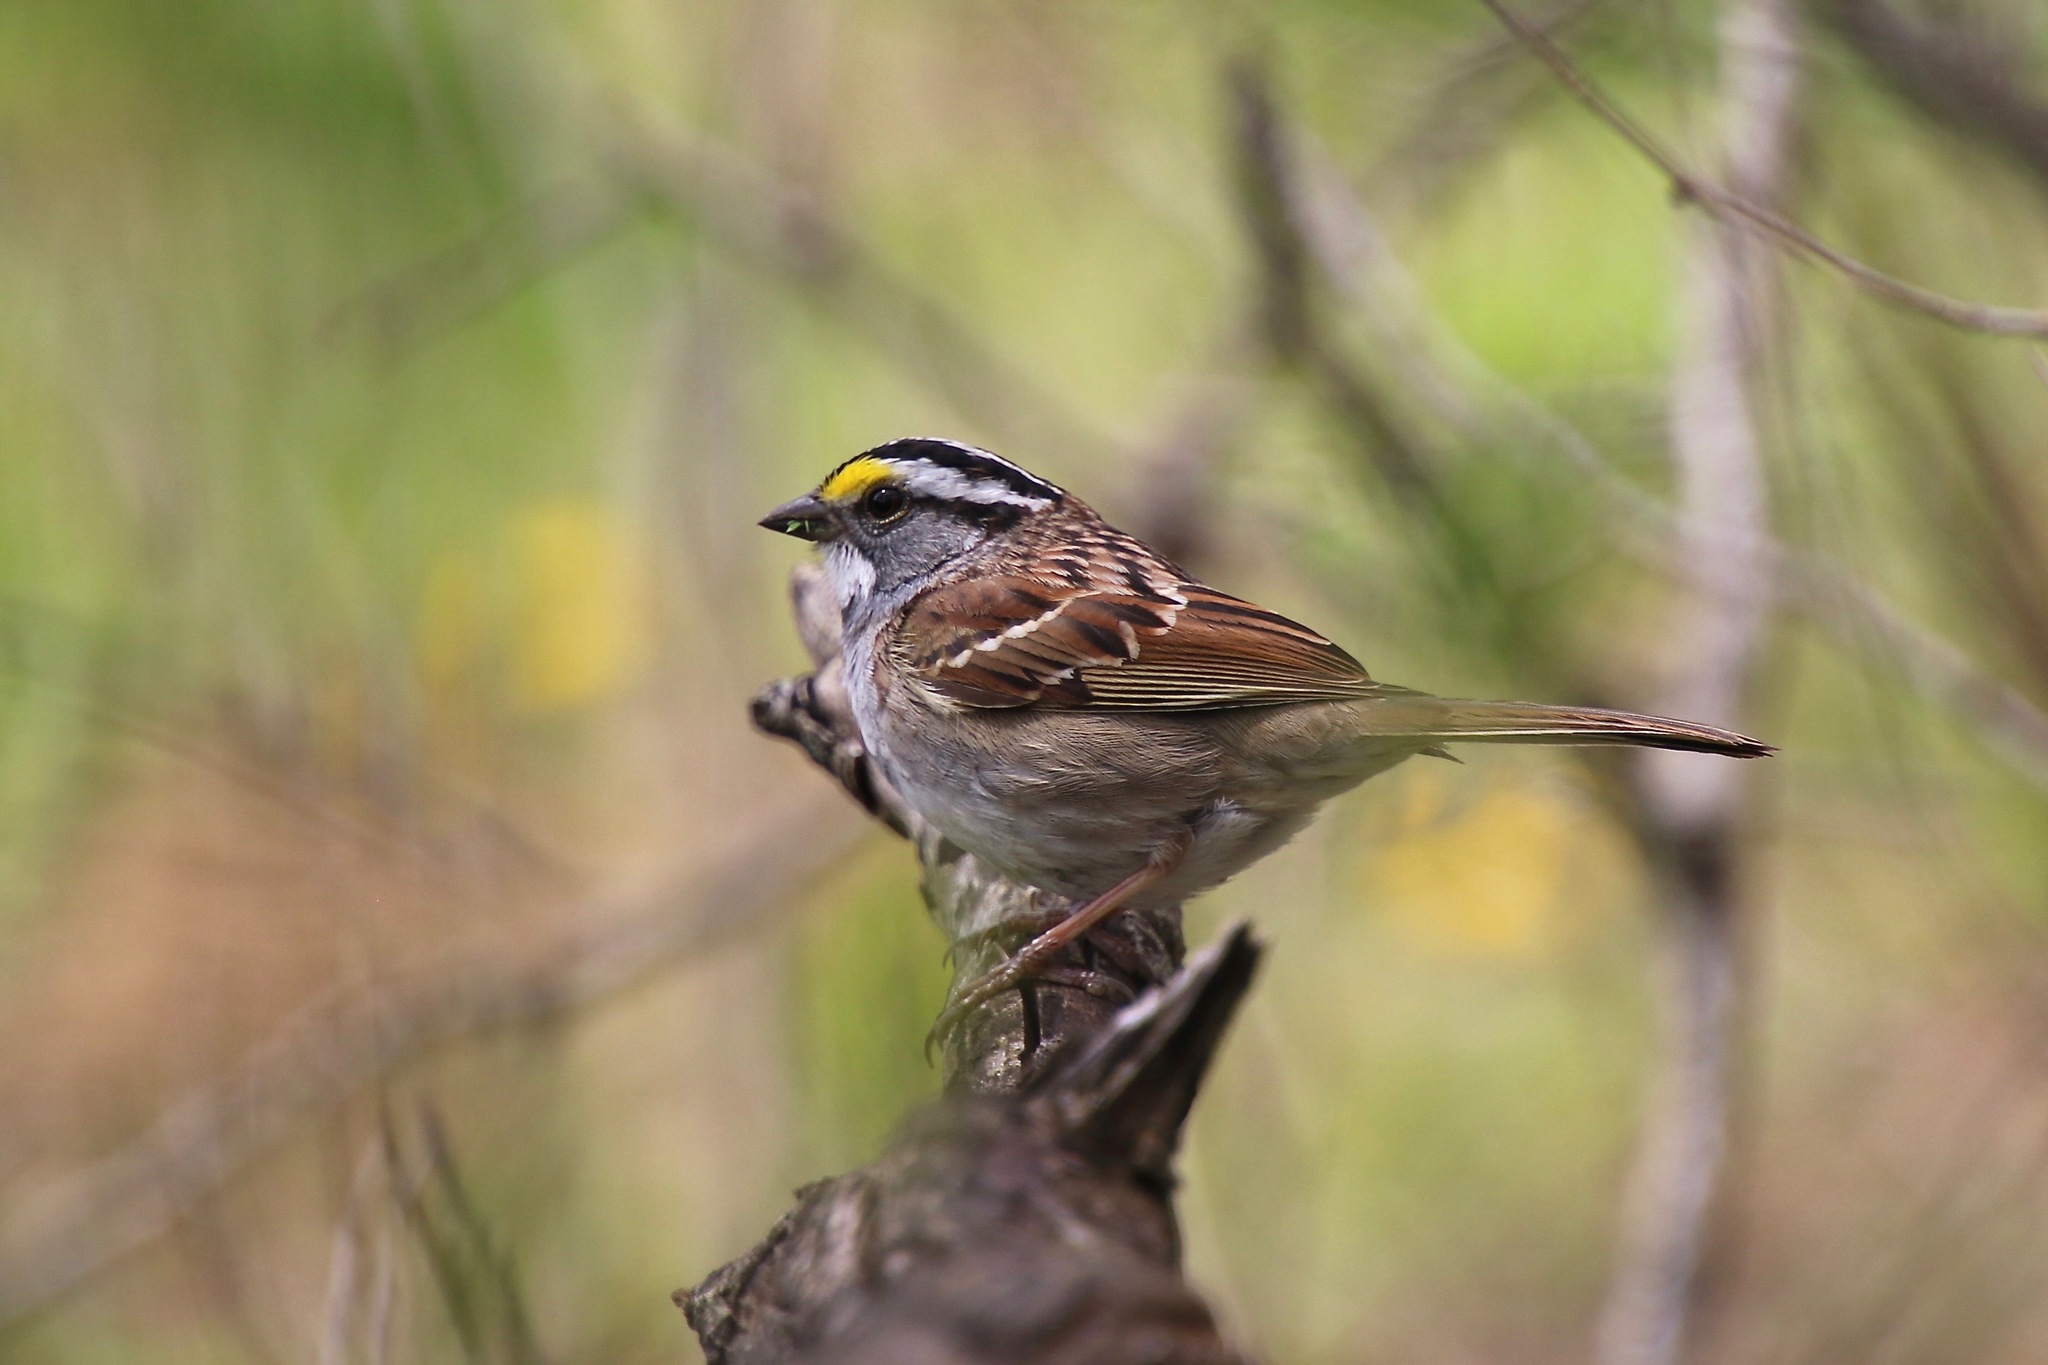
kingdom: Animalia
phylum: Chordata
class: Aves
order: Passeriformes
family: Passerellidae
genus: Zonotrichia
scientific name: Zonotrichia albicollis
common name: White-throated sparrow
